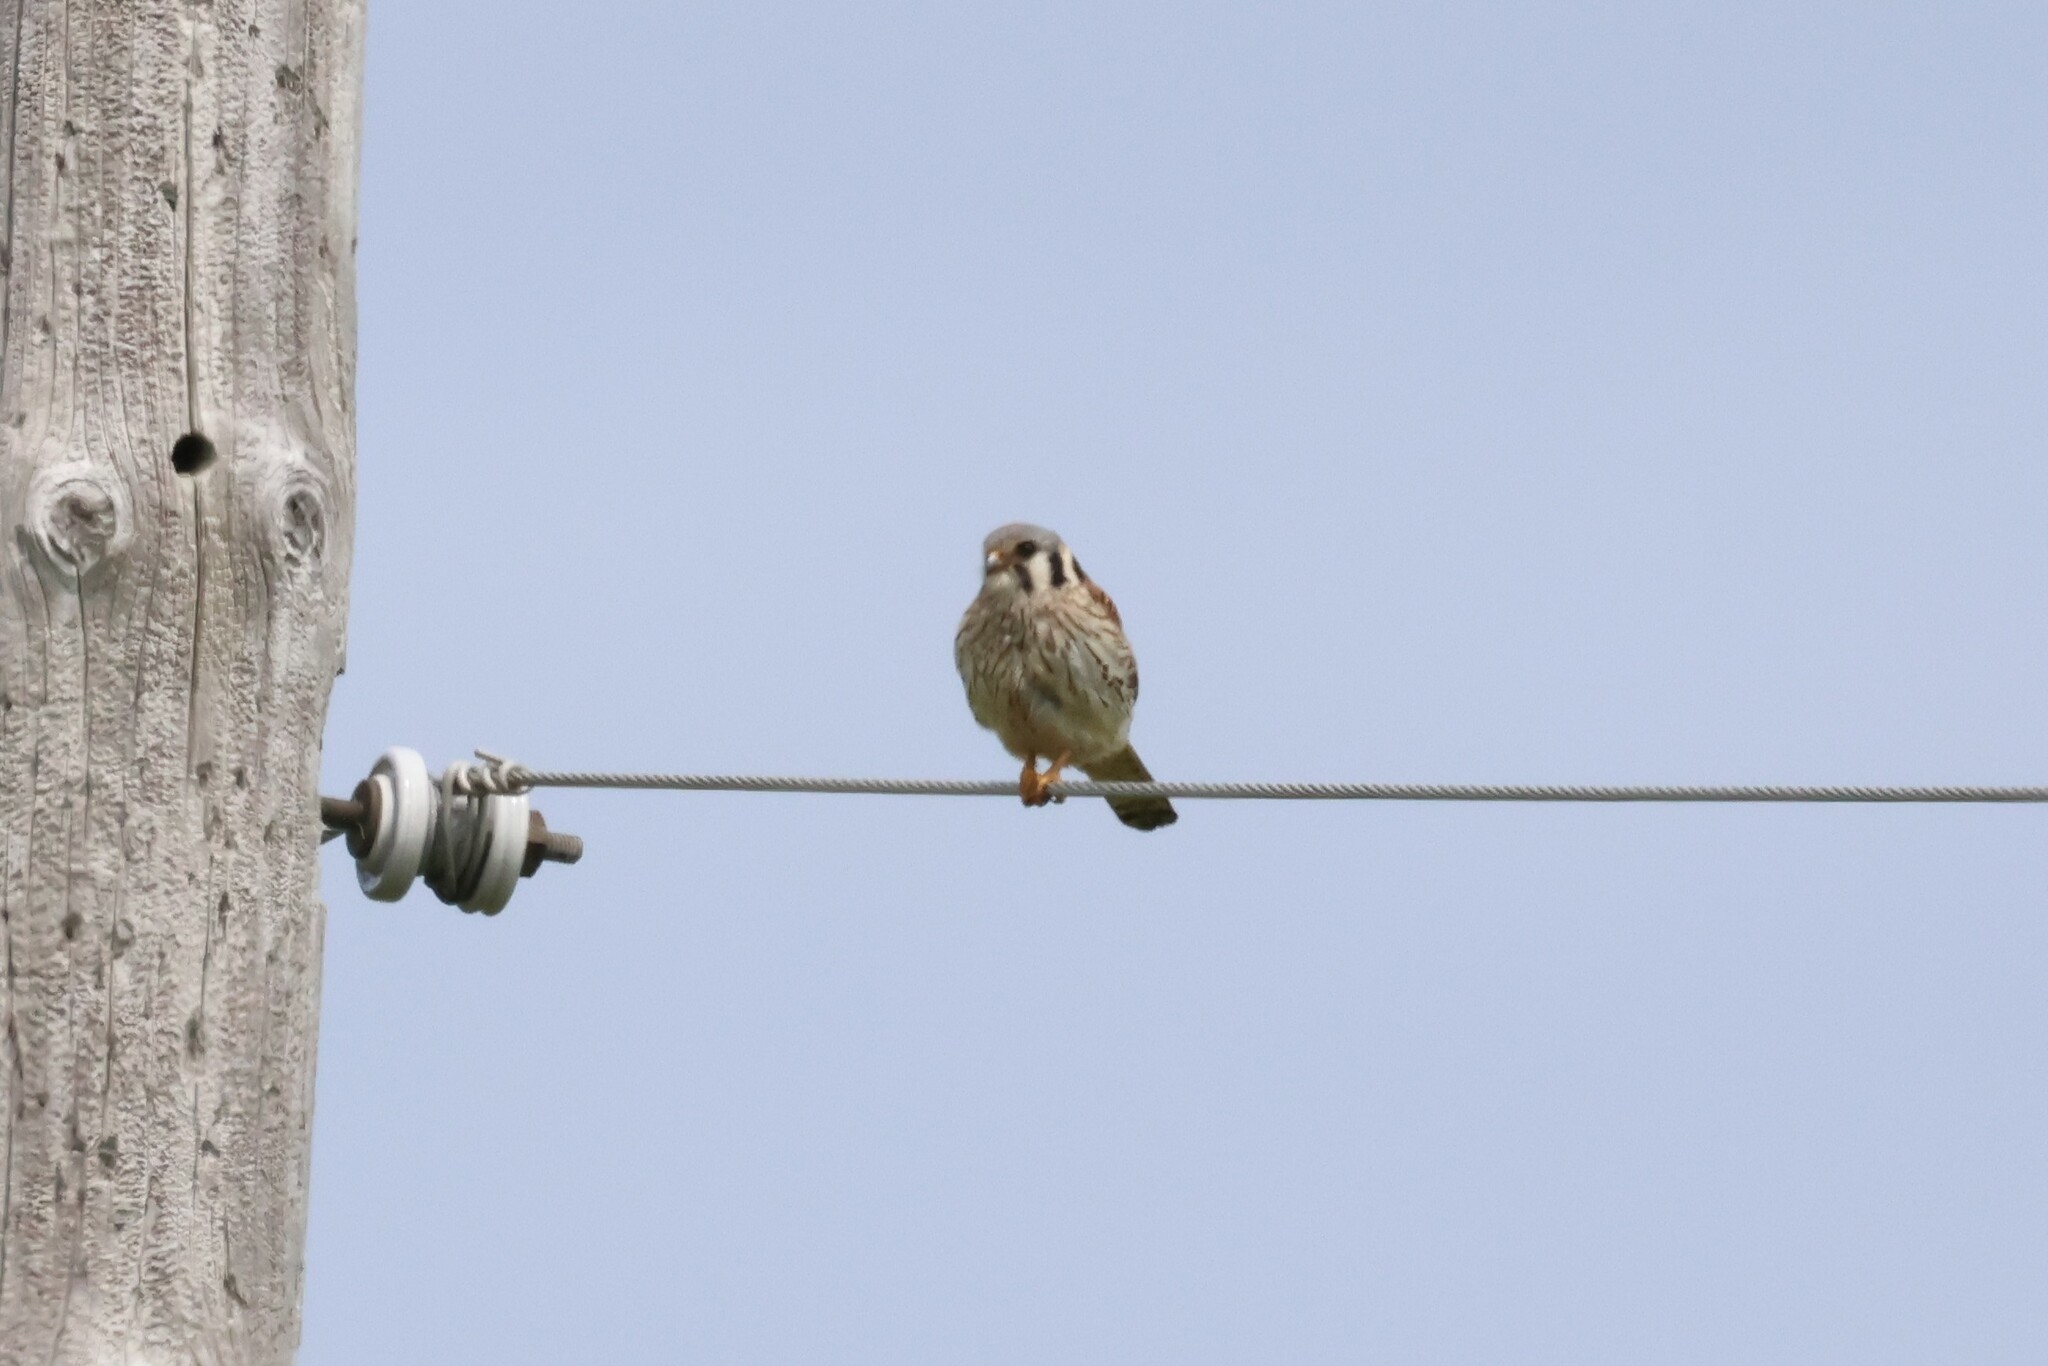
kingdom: Animalia
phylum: Chordata
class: Aves
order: Falconiformes
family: Falconidae
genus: Falco
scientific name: Falco sparverius
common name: American kestrel
